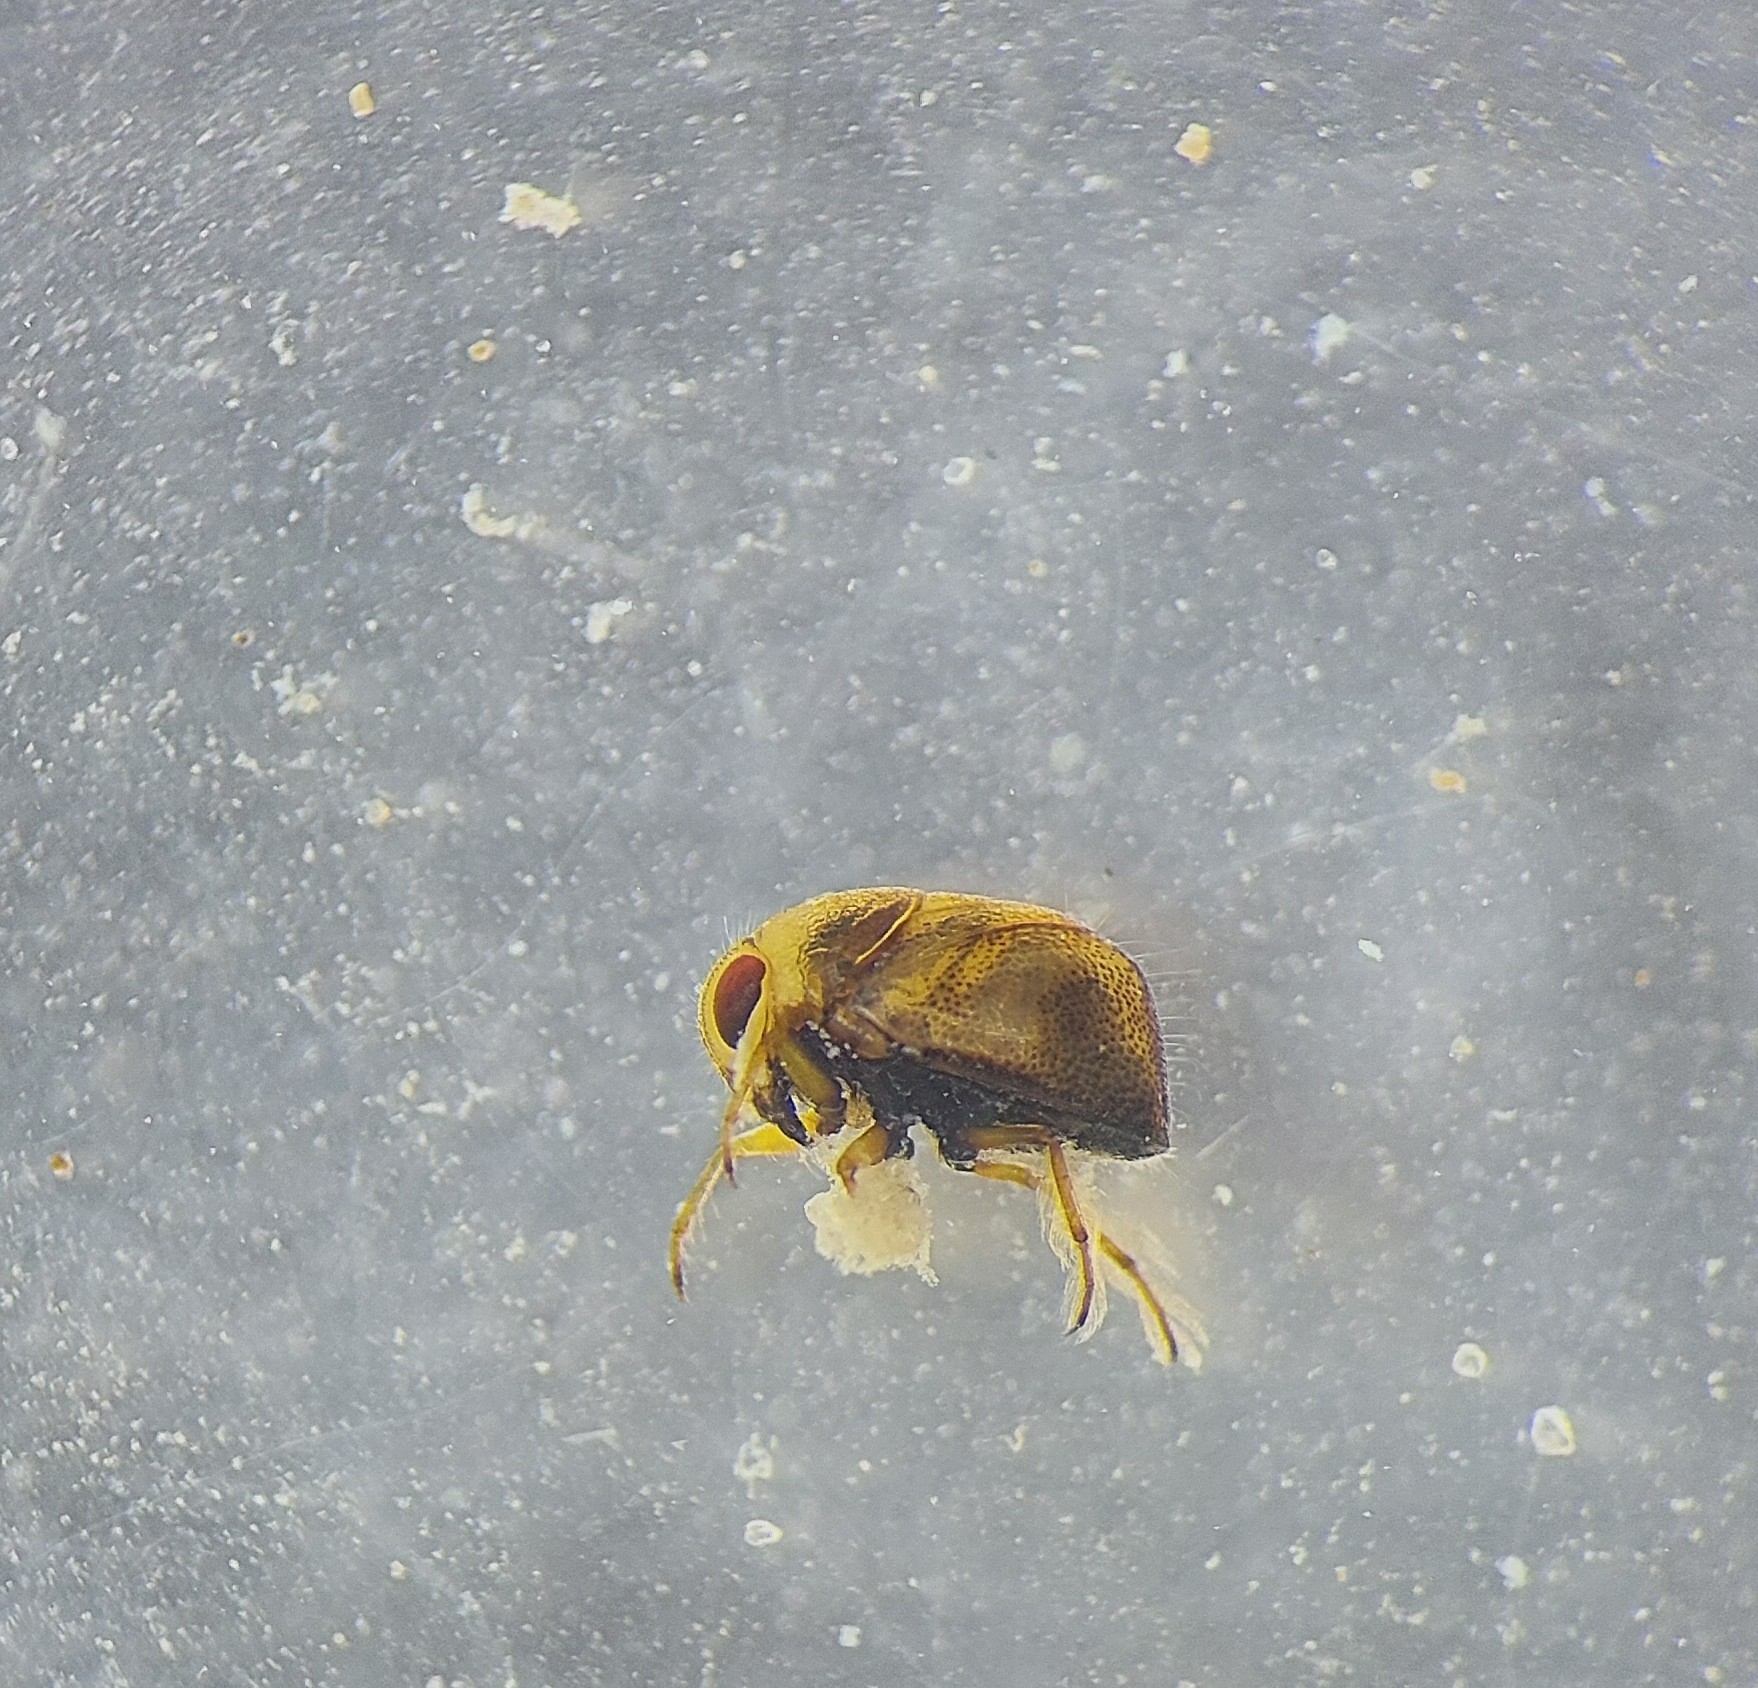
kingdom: Animalia
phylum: Arthropoda
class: Insecta
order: Hemiptera
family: Pleidae
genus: Plea
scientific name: Plea minutissima
